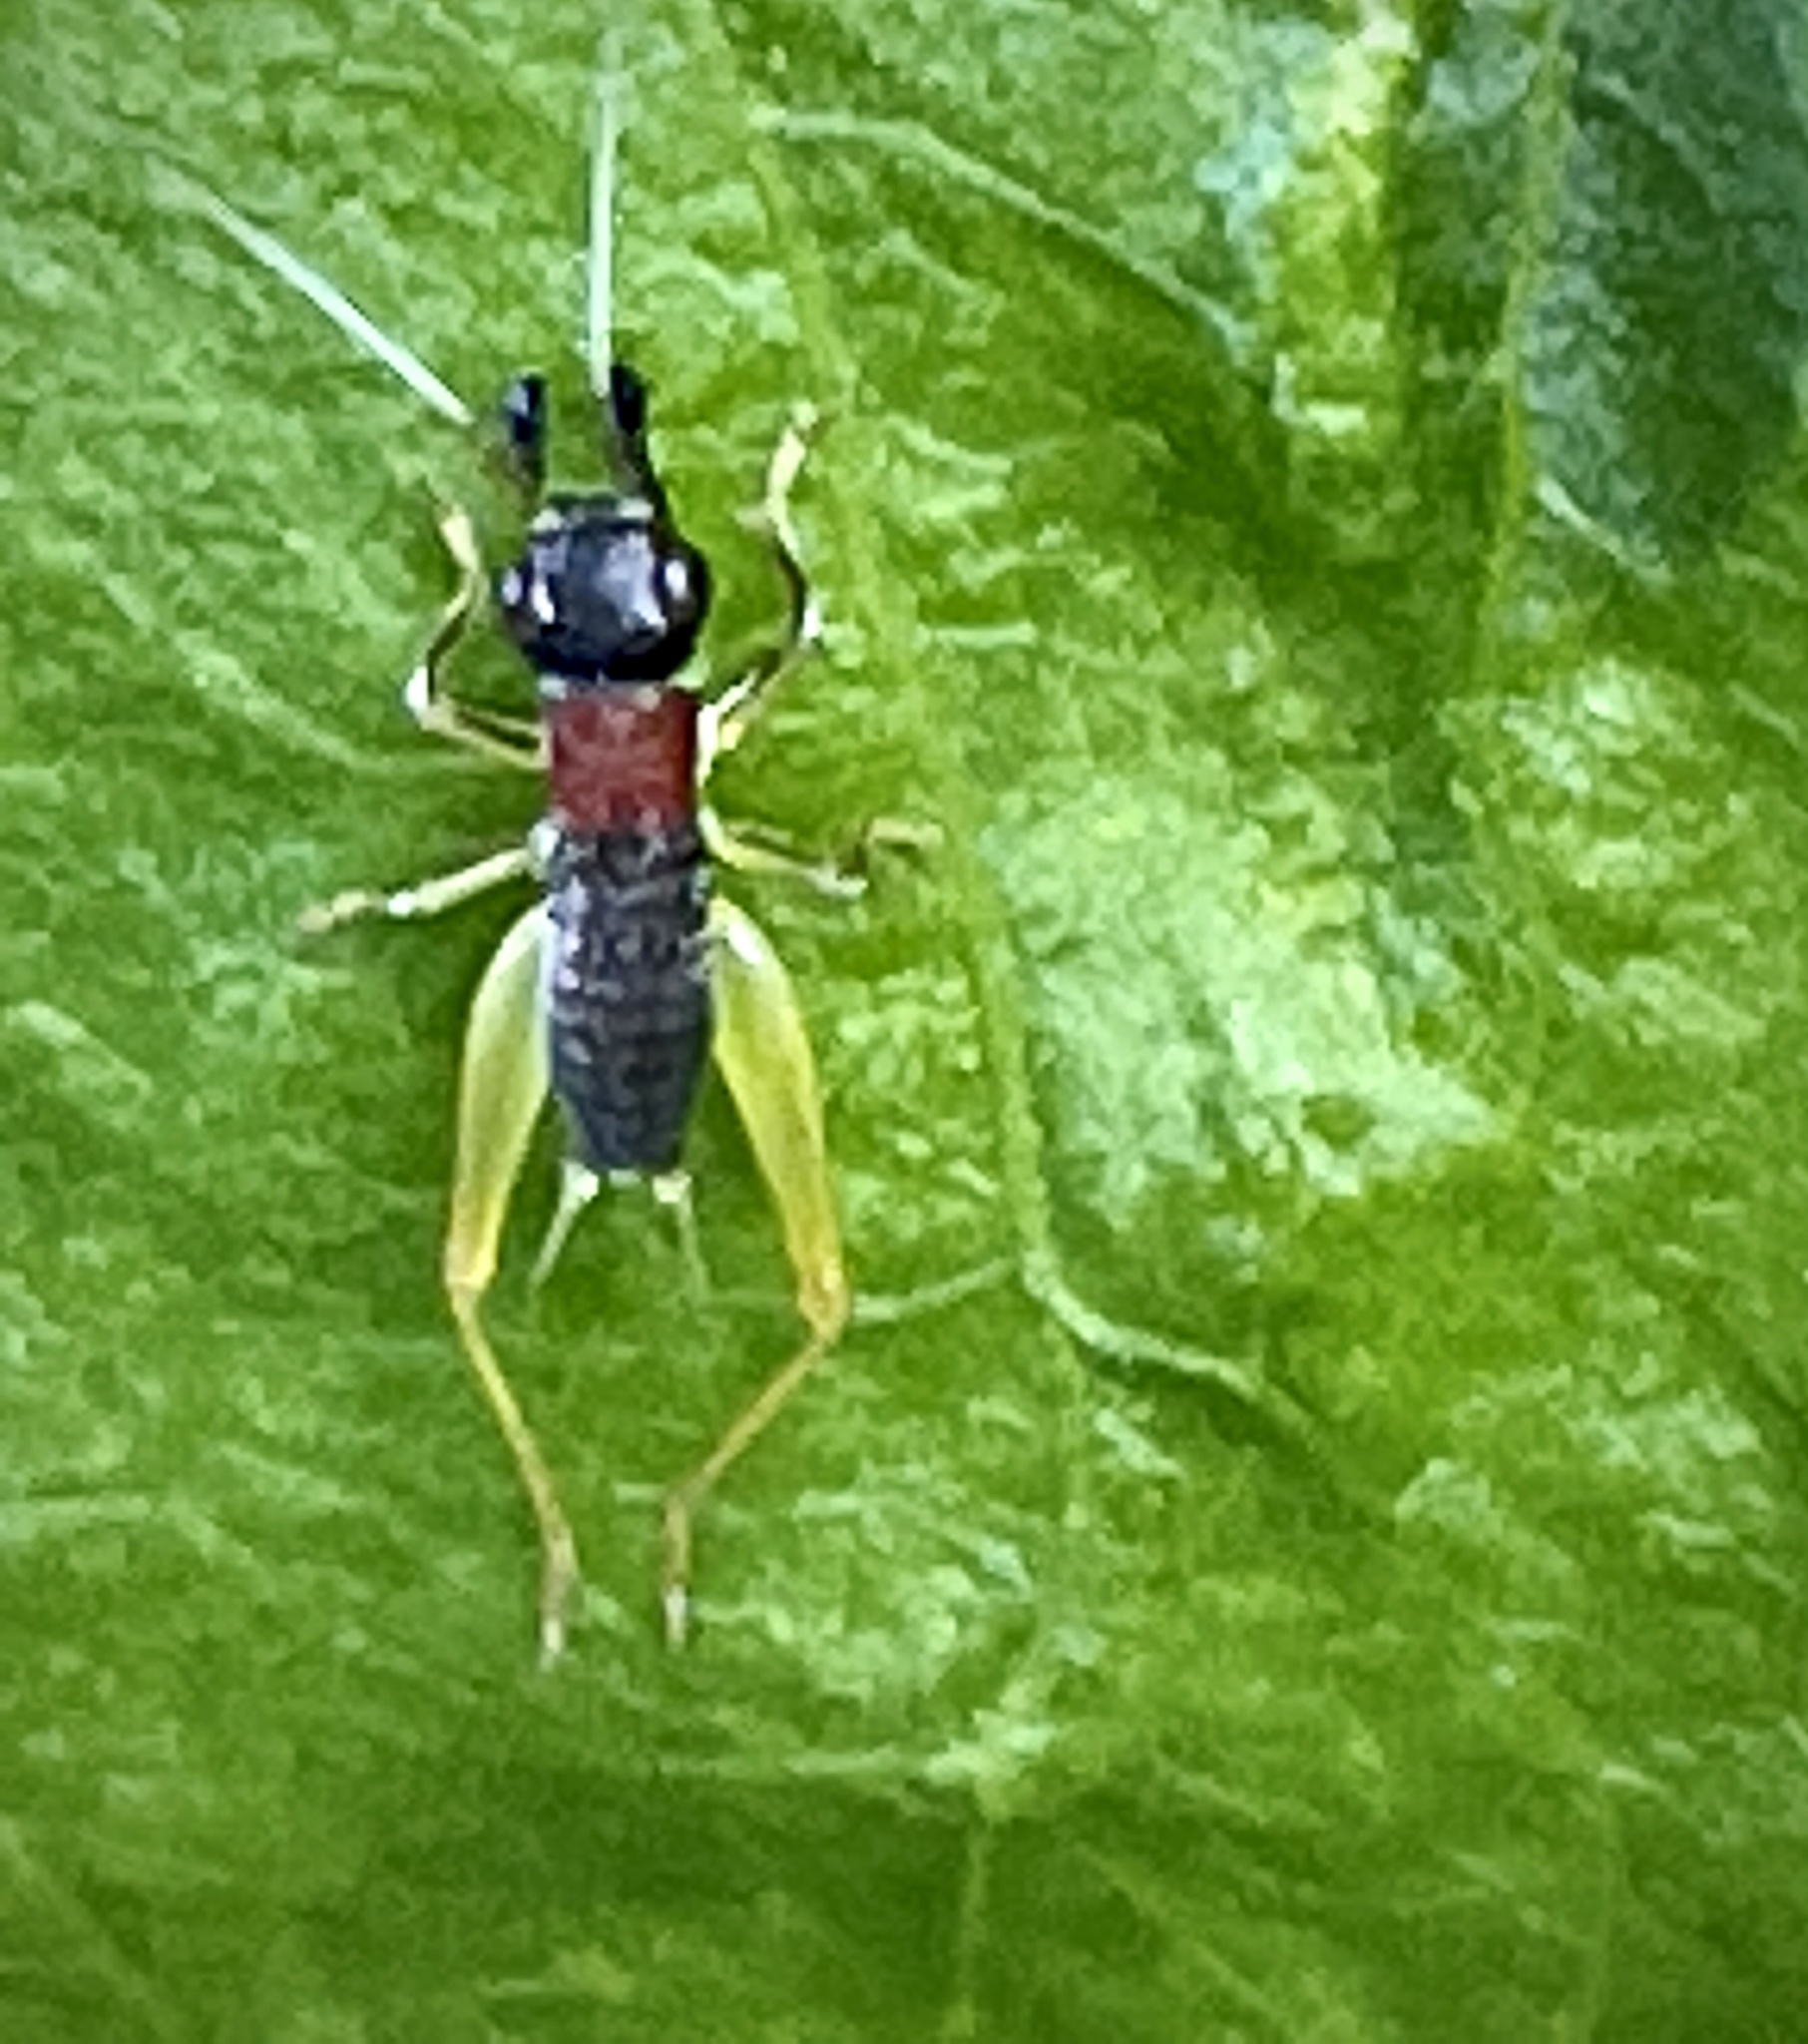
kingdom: Animalia
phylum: Arthropoda
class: Insecta
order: Orthoptera
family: Trigonidiidae
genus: Phyllopalpus
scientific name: Phyllopalpus pulchellus
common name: Handsome trig
